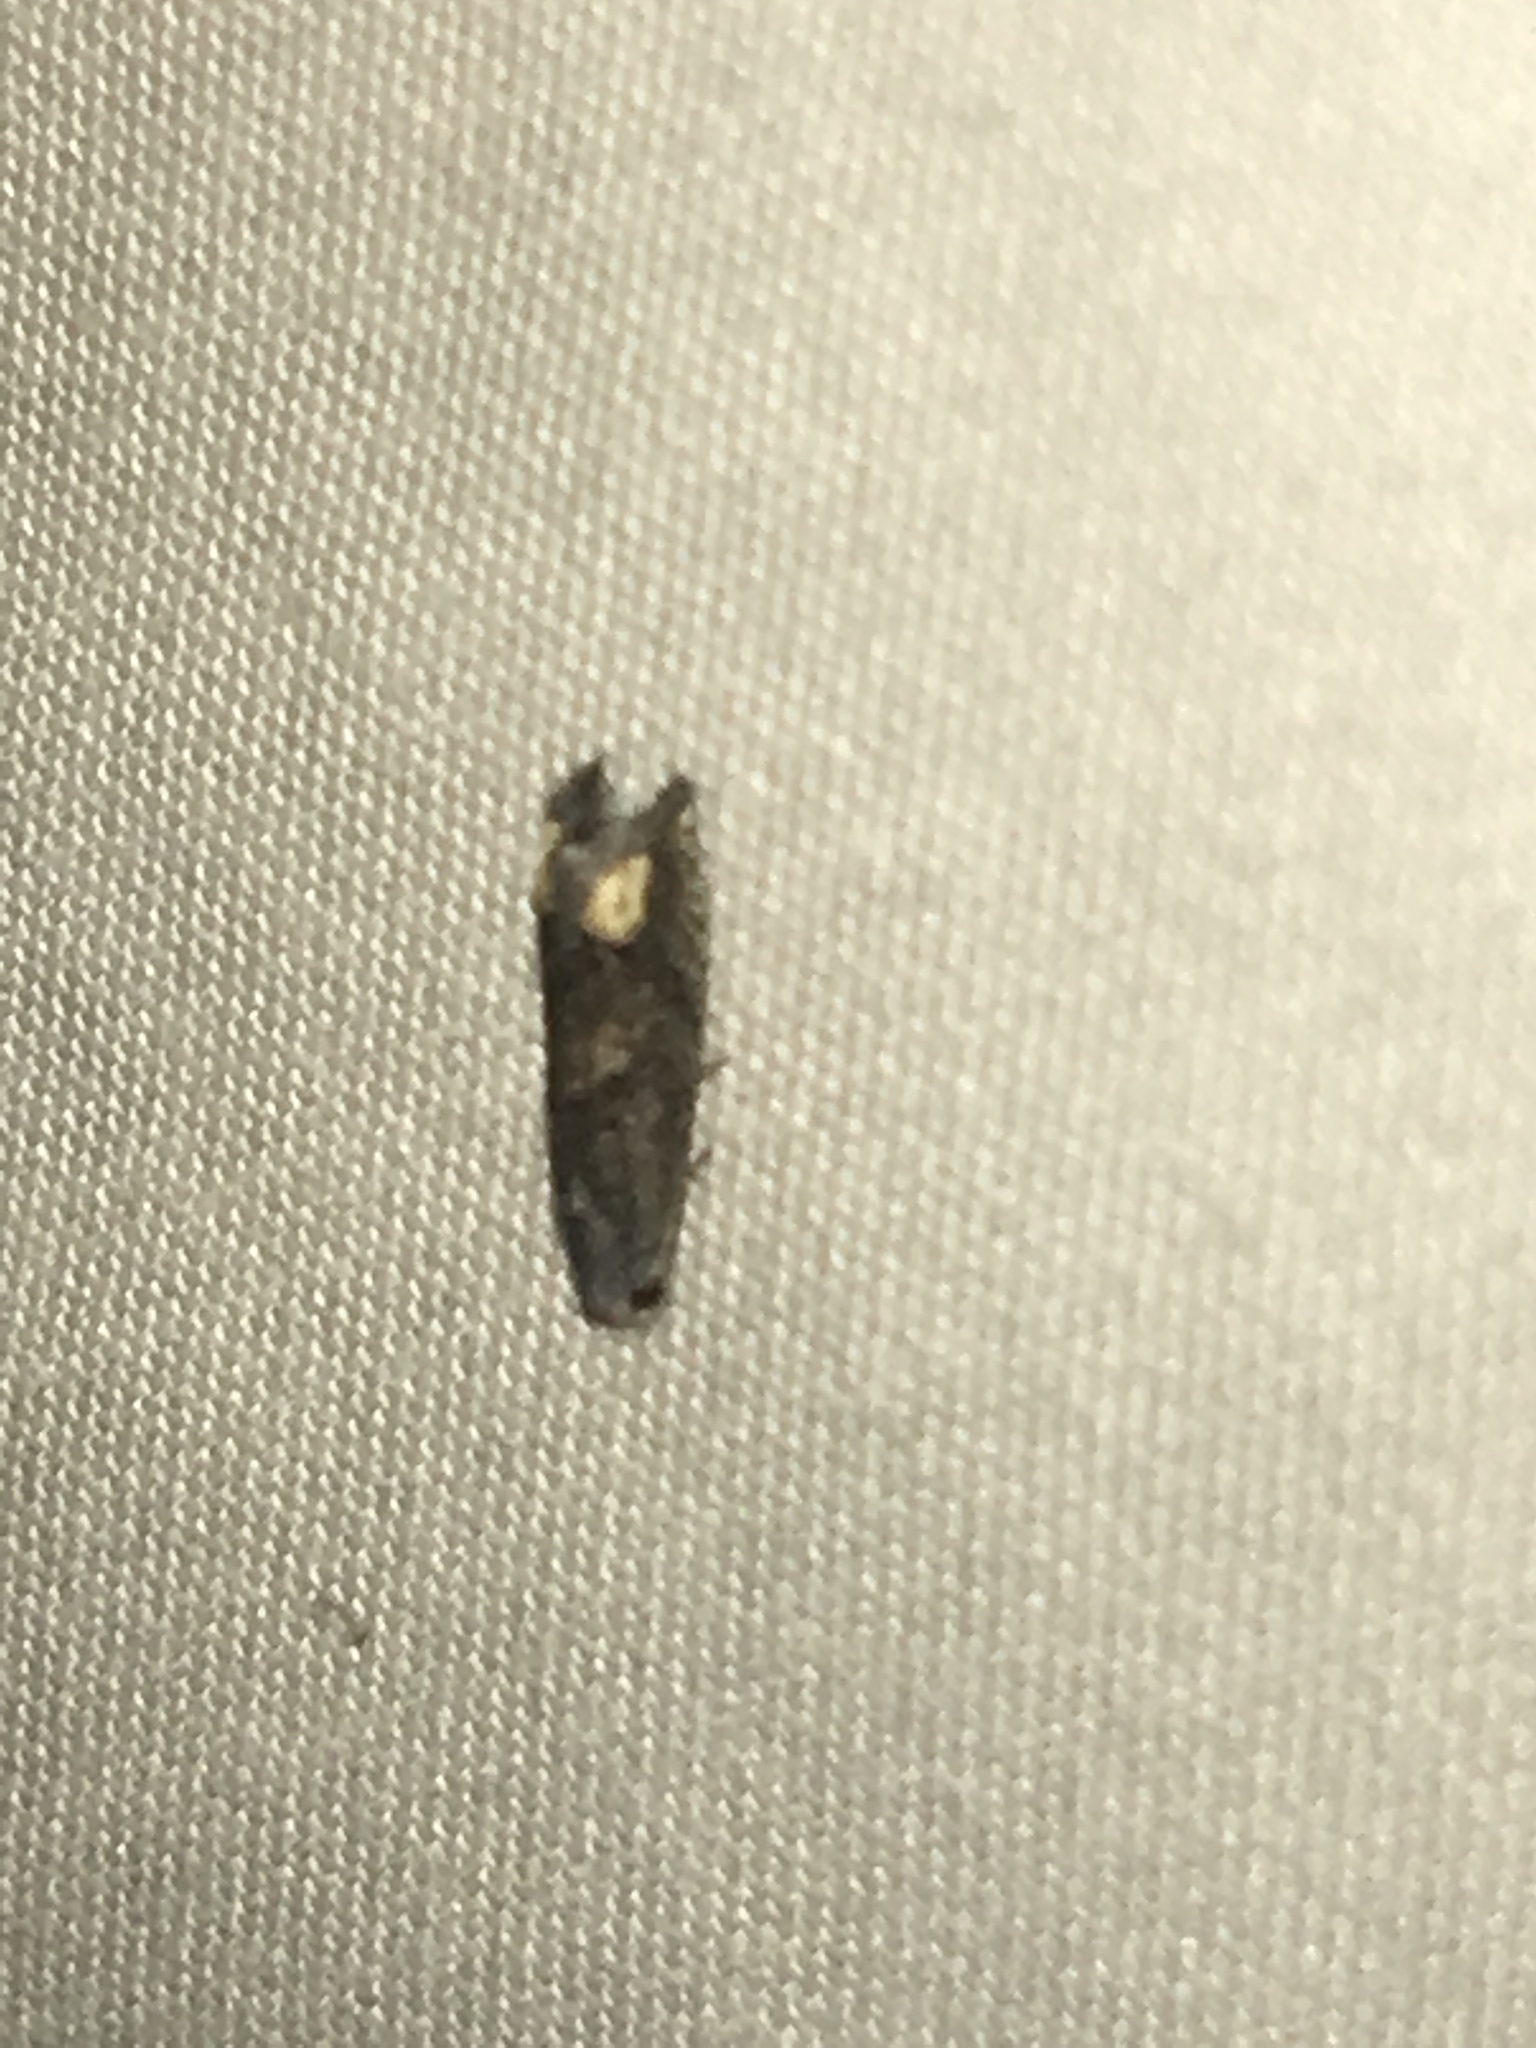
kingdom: Animalia
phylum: Arthropoda
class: Insecta
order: Lepidoptera
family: Tortricidae
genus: Epiblema
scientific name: Epiblema strenuana
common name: Ragweed borer moth
